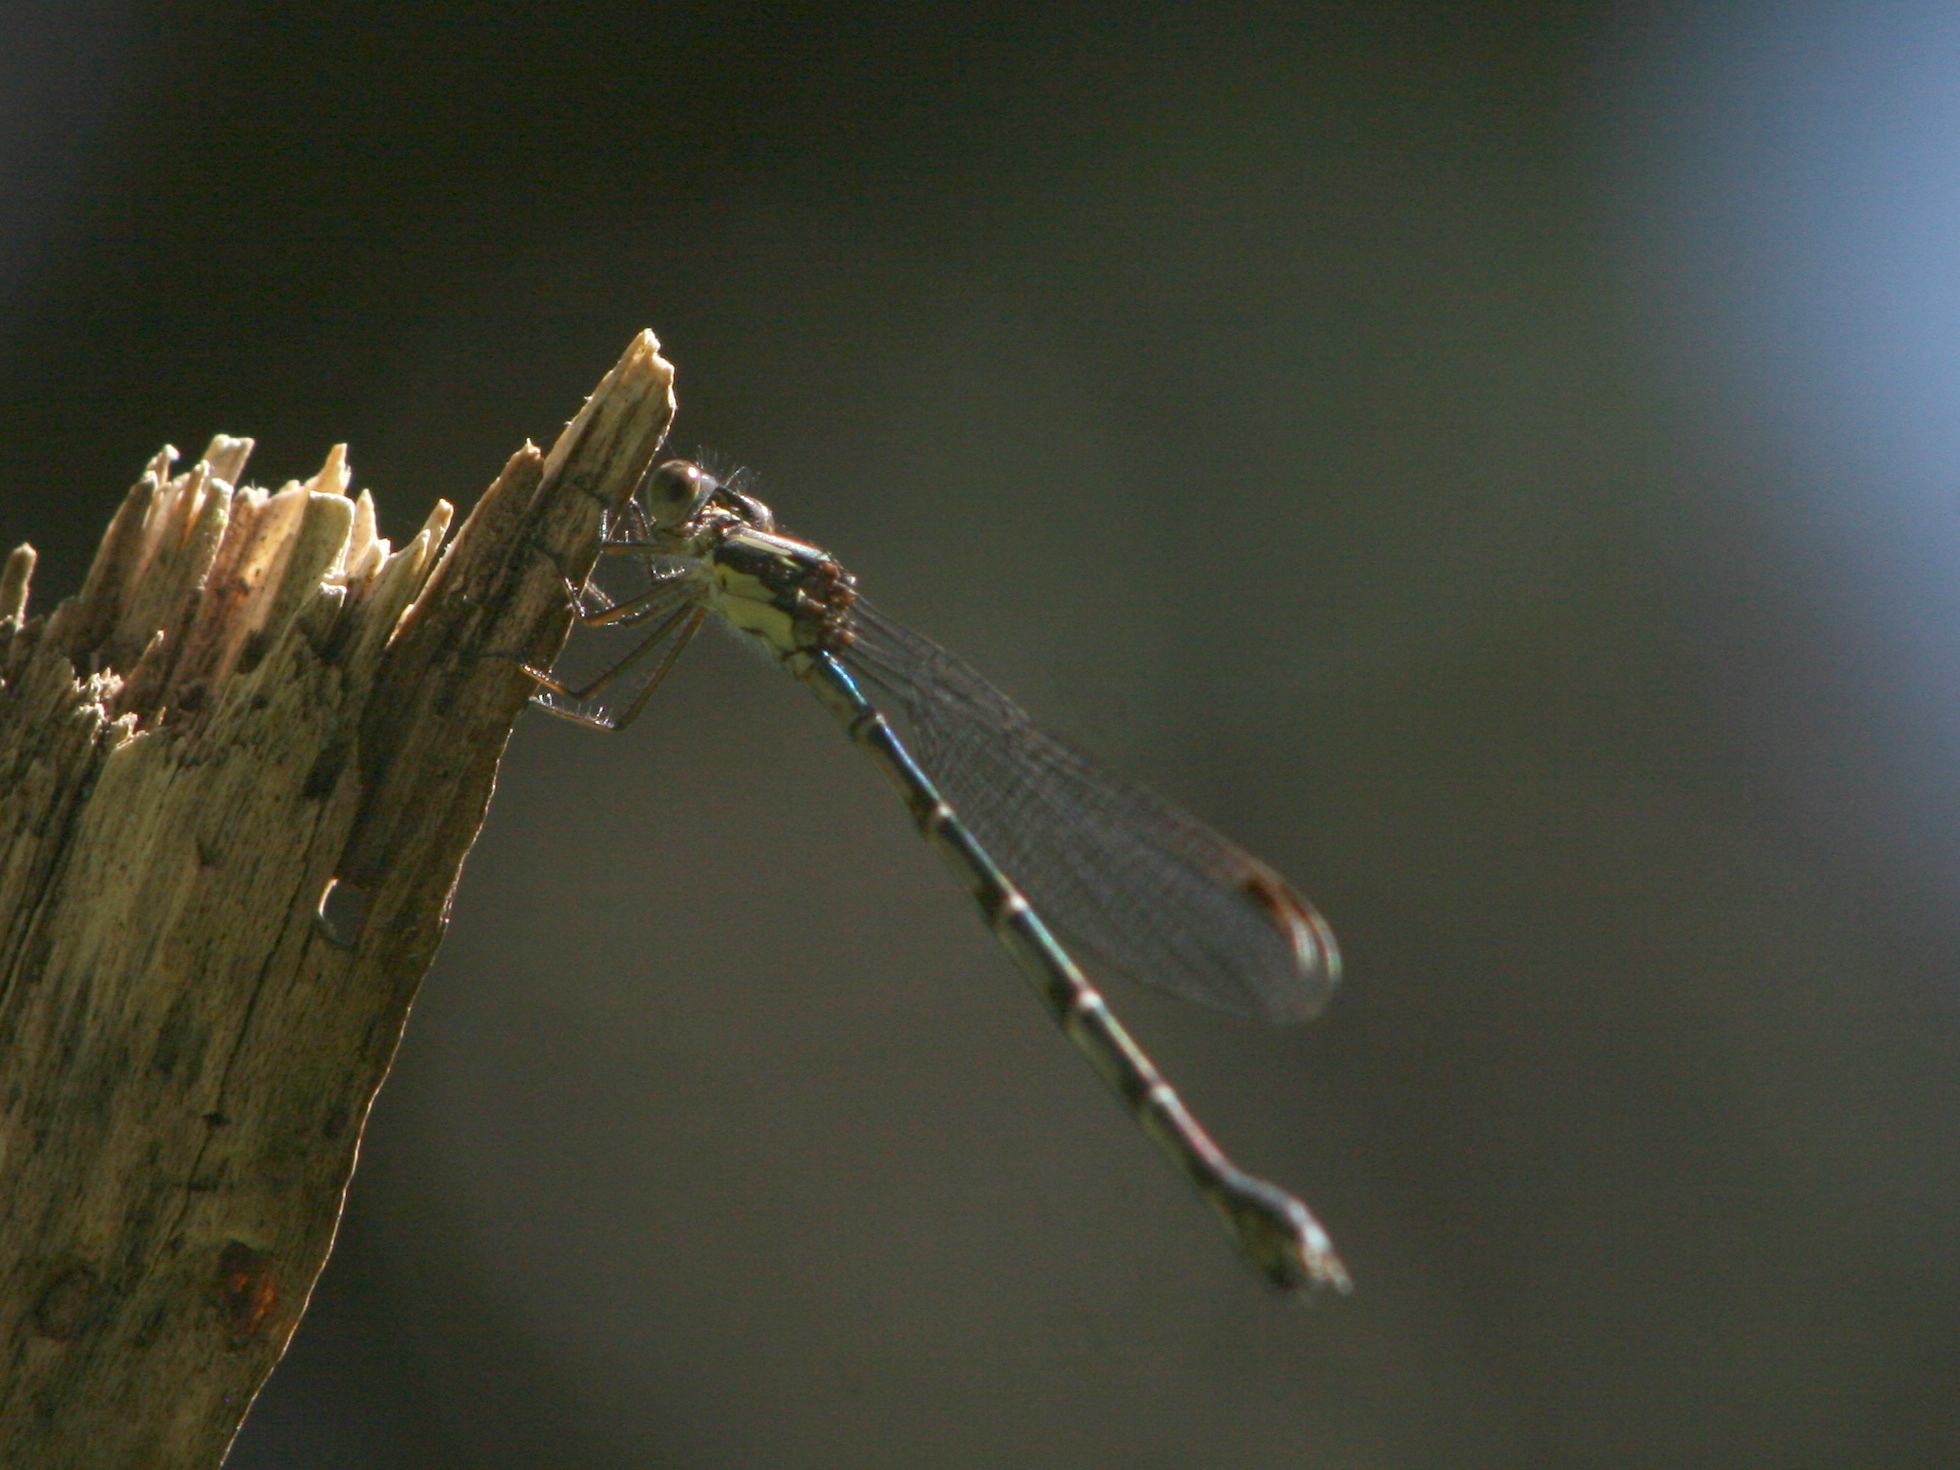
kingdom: Animalia
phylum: Arthropoda
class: Insecta
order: Odonata
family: Lestidae
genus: Austrolestes
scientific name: Austrolestes colensonis
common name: Blue damselfly
